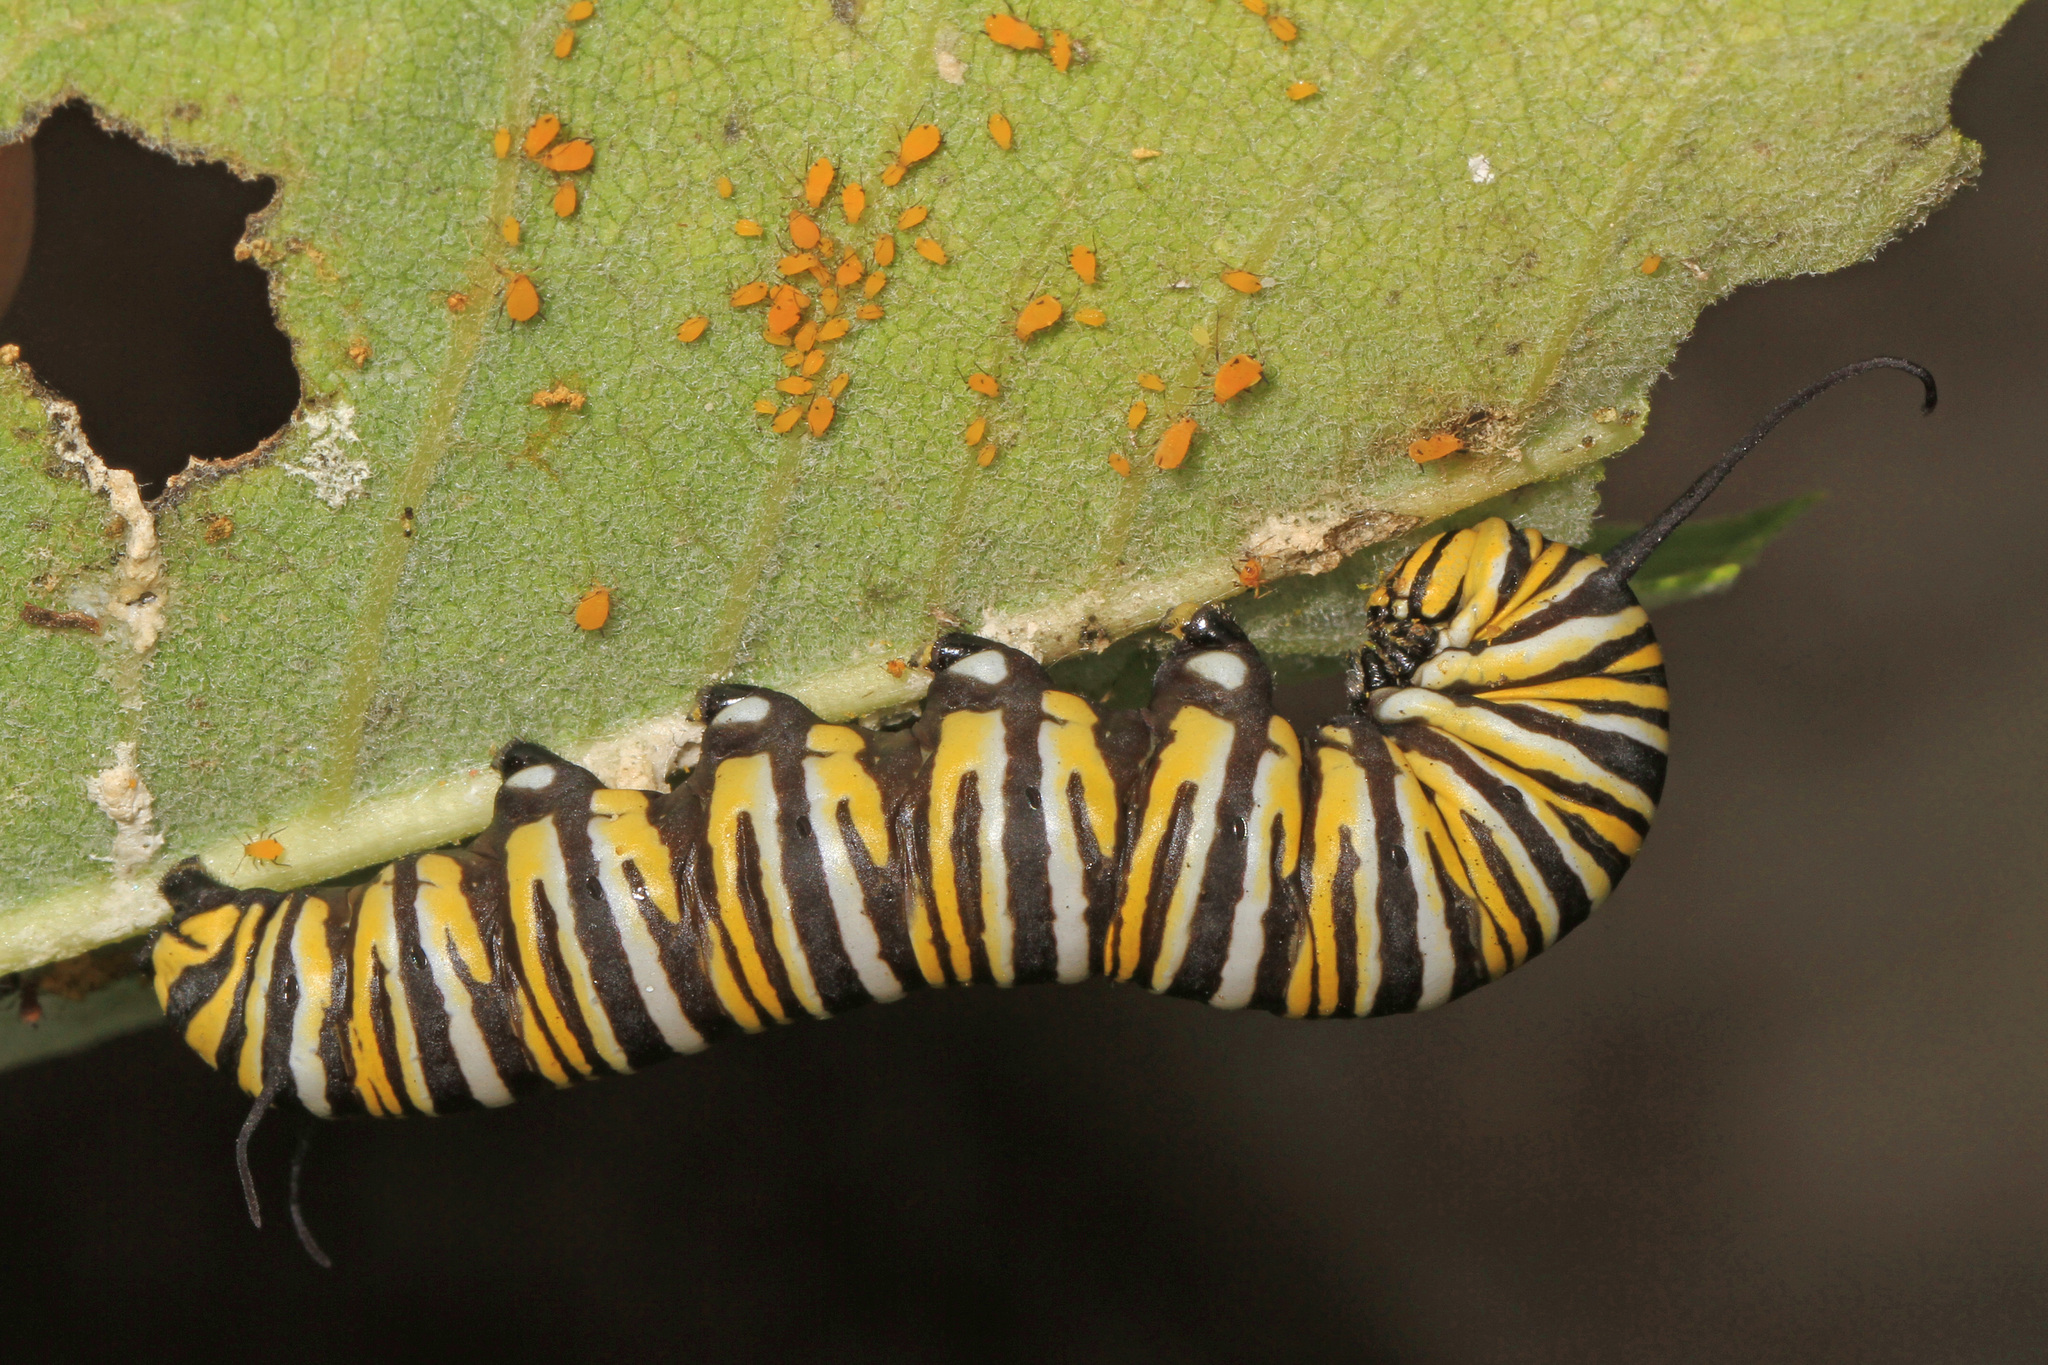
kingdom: Animalia
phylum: Arthropoda
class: Insecta
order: Lepidoptera
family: Nymphalidae
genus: Danaus
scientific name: Danaus plexippus
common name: Monarch
